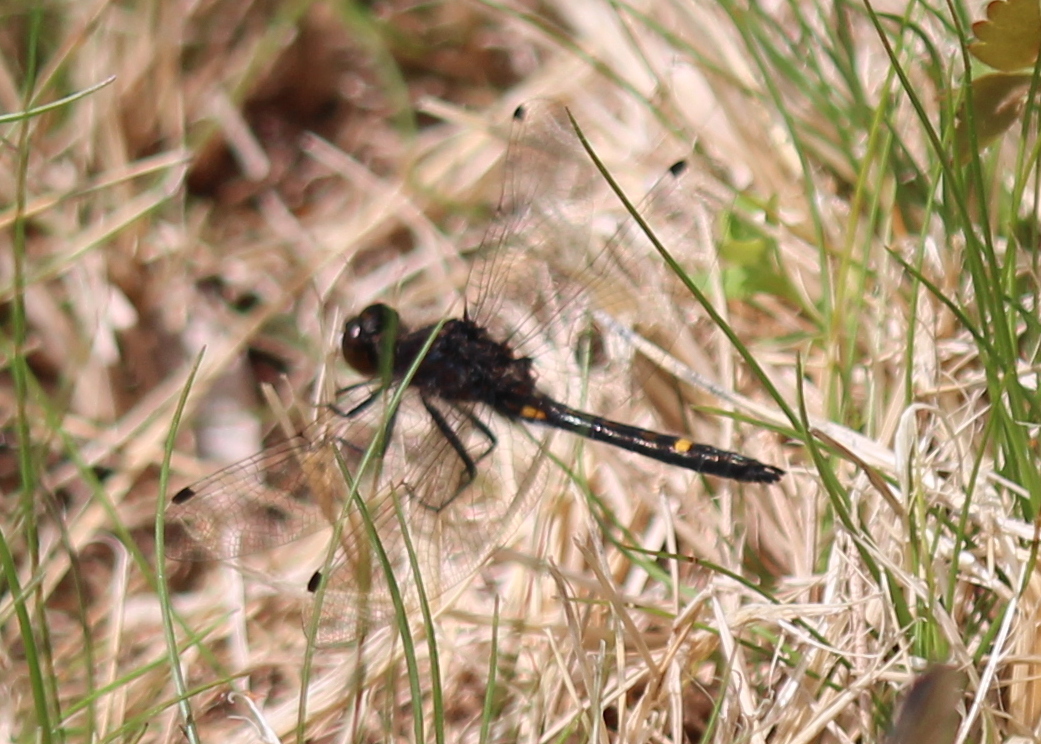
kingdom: Animalia
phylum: Arthropoda
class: Insecta
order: Odonata
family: Libellulidae
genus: Leucorrhinia
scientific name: Leucorrhinia intacta
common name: Dot-tailed whiteface
